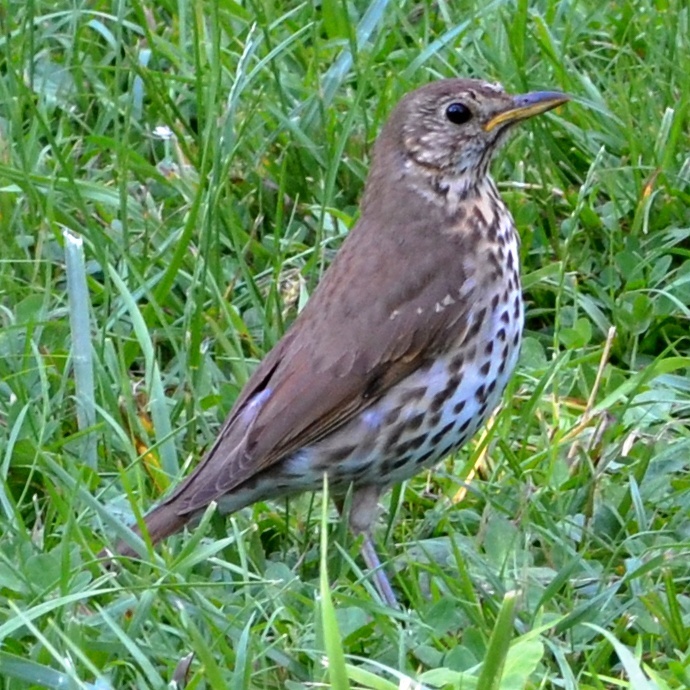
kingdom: Animalia
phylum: Chordata
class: Aves
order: Passeriformes
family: Turdidae
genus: Turdus
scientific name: Turdus philomelos
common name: Song thrush
